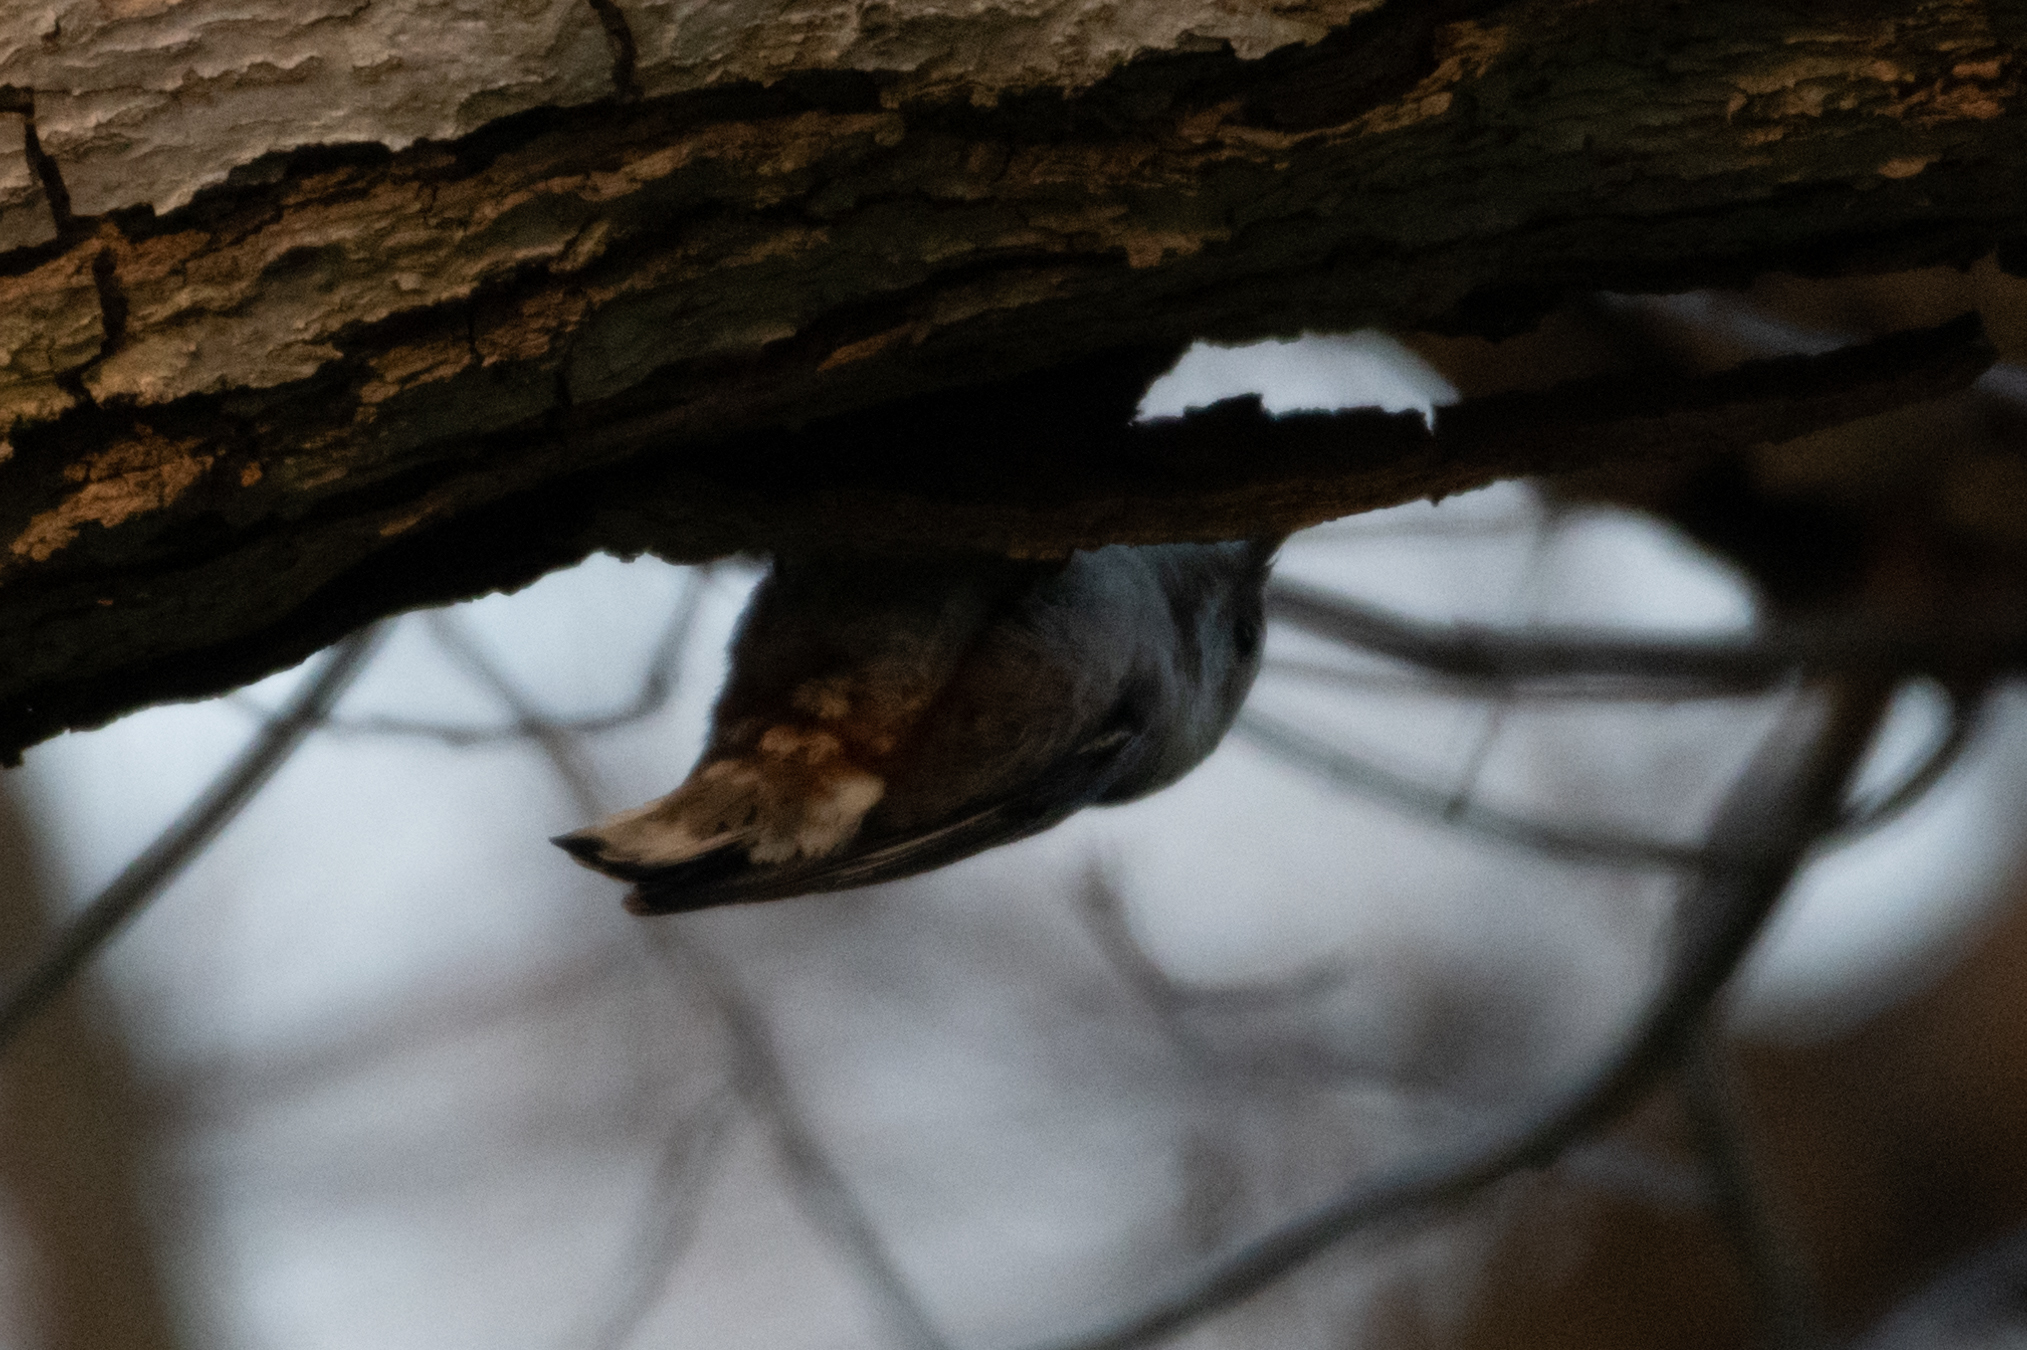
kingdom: Animalia
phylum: Chordata
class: Aves
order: Passeriformes
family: Sittidae
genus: Sitta
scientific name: Sitta carolinensis
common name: White-breasted nuthatch
